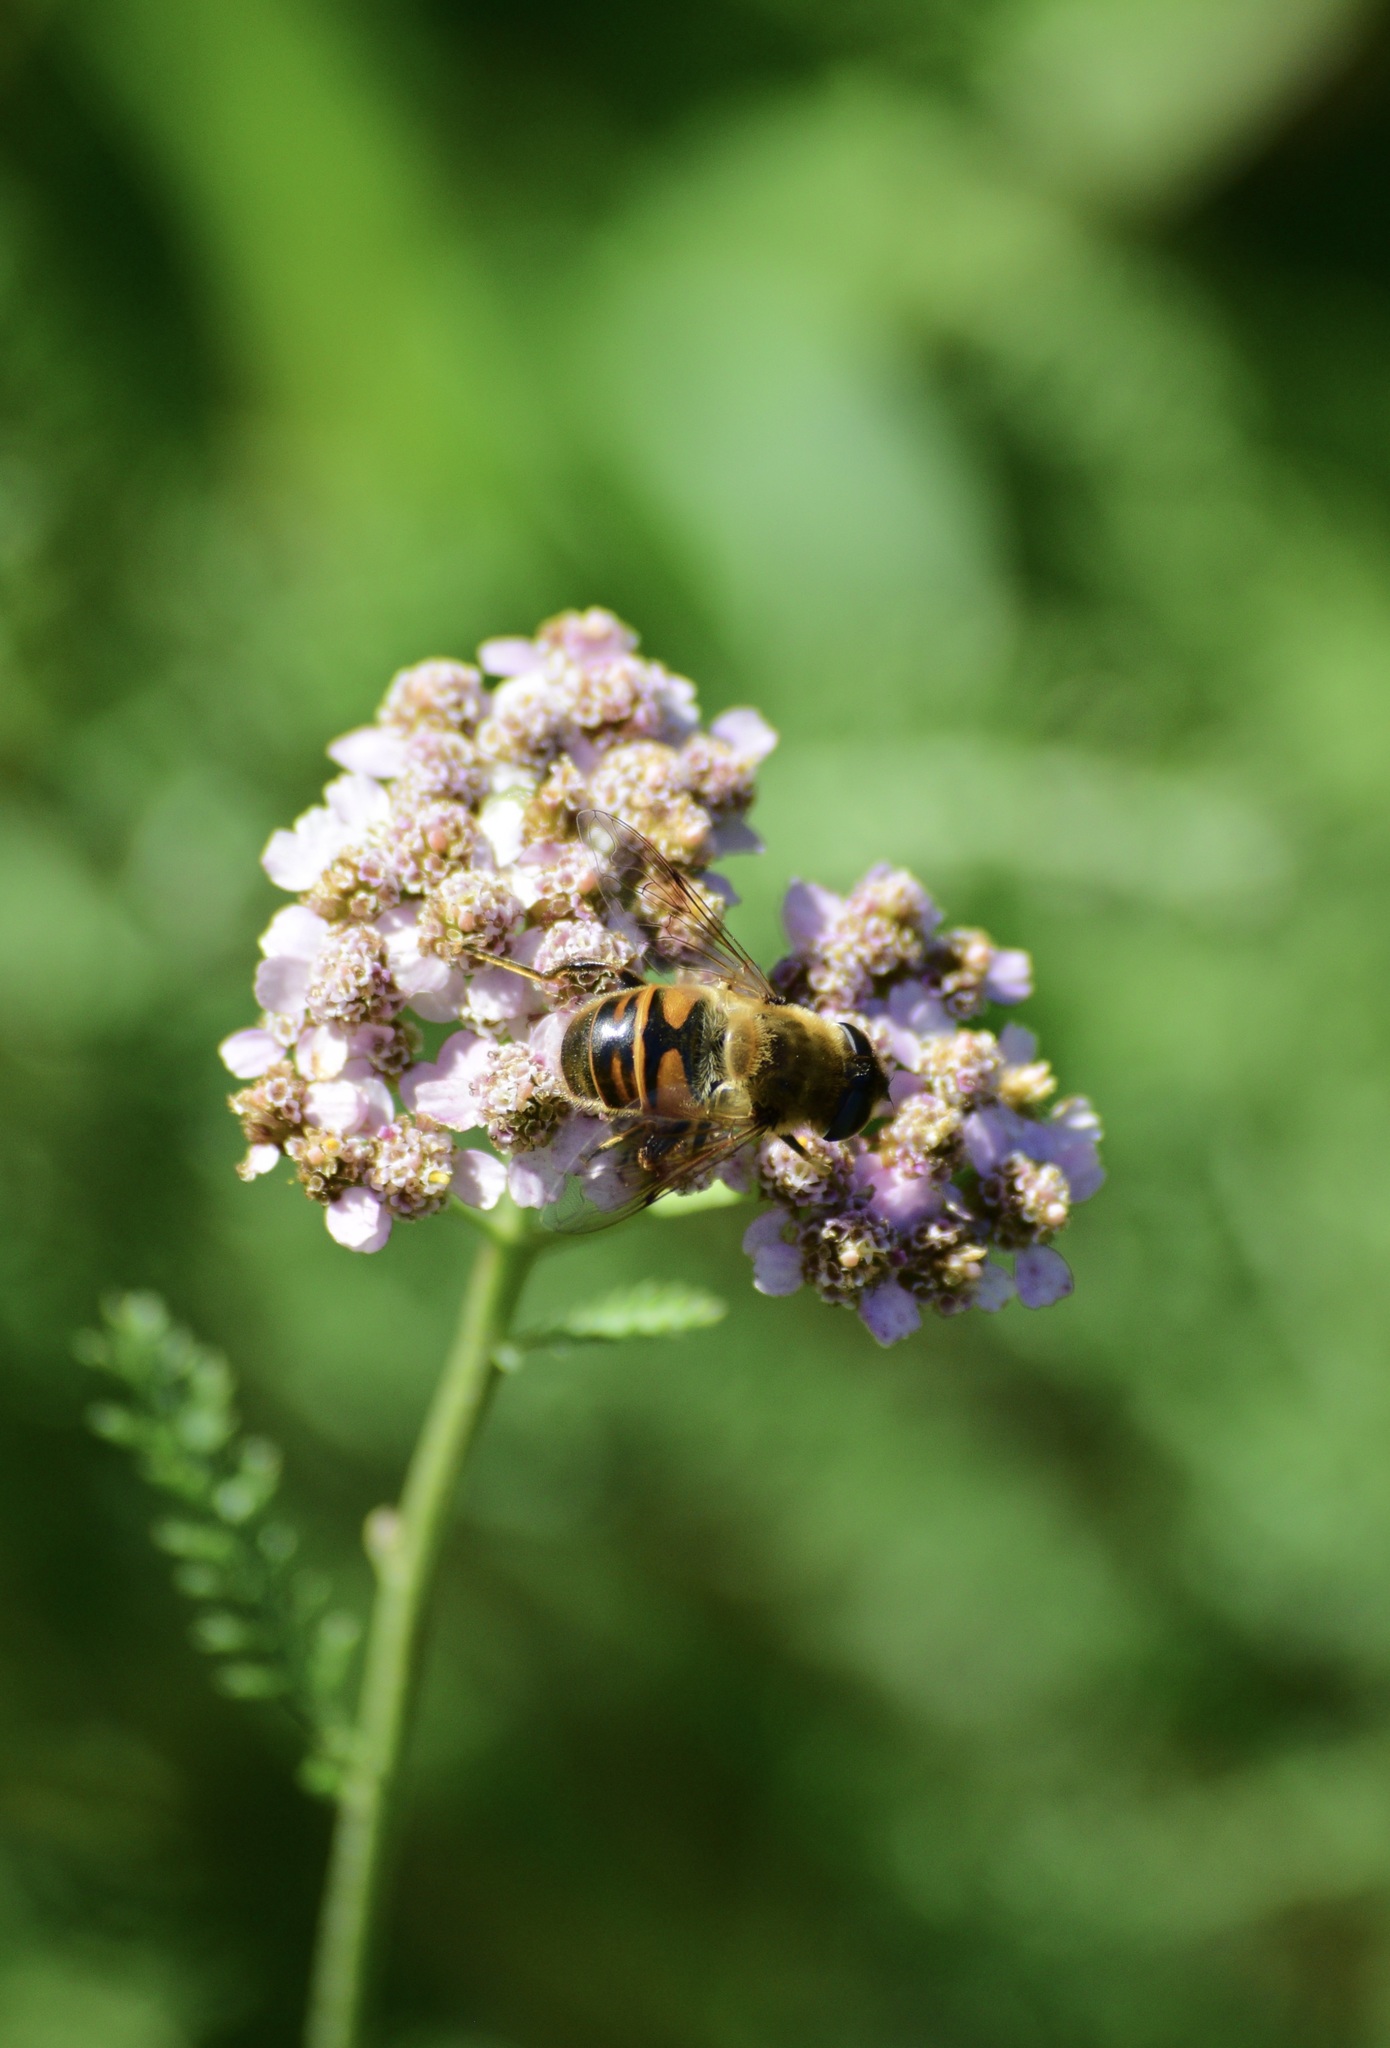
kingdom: Animalia
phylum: Arthropoda
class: Insecta
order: Diptera
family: Syrphidae
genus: Eristalis
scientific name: Eristalis tenax
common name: Drone fly
